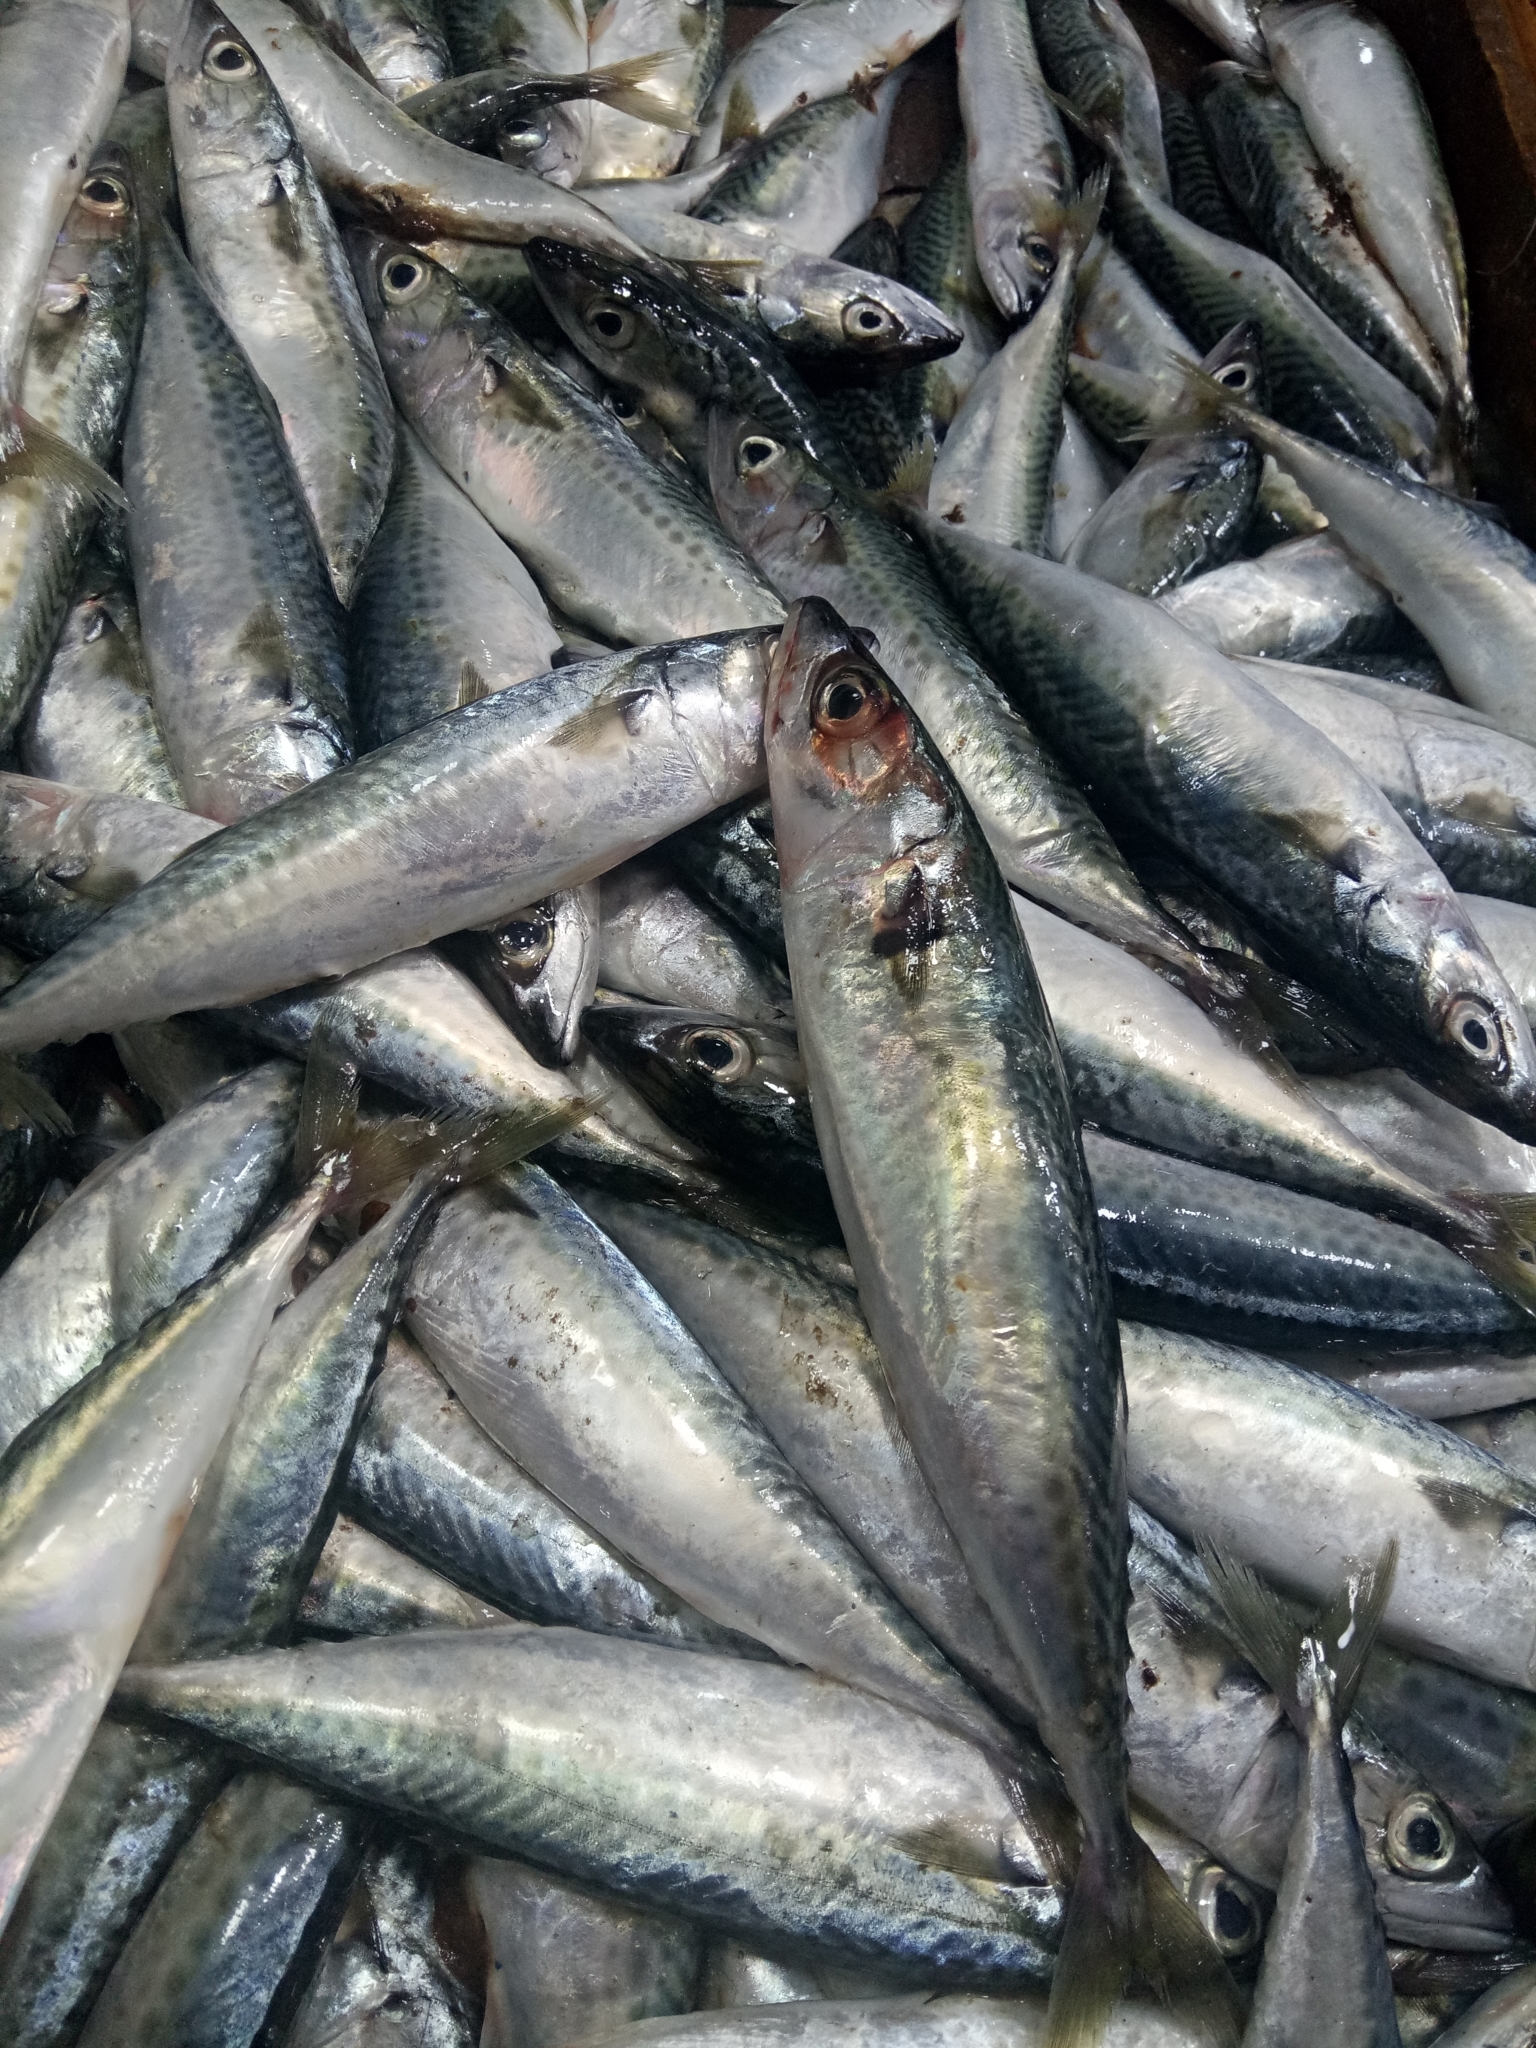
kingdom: Animalia
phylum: Chordata
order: Perciformes
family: Scombridae
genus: Scomber
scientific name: Scomber colias
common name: Atlantic chub mackerel
